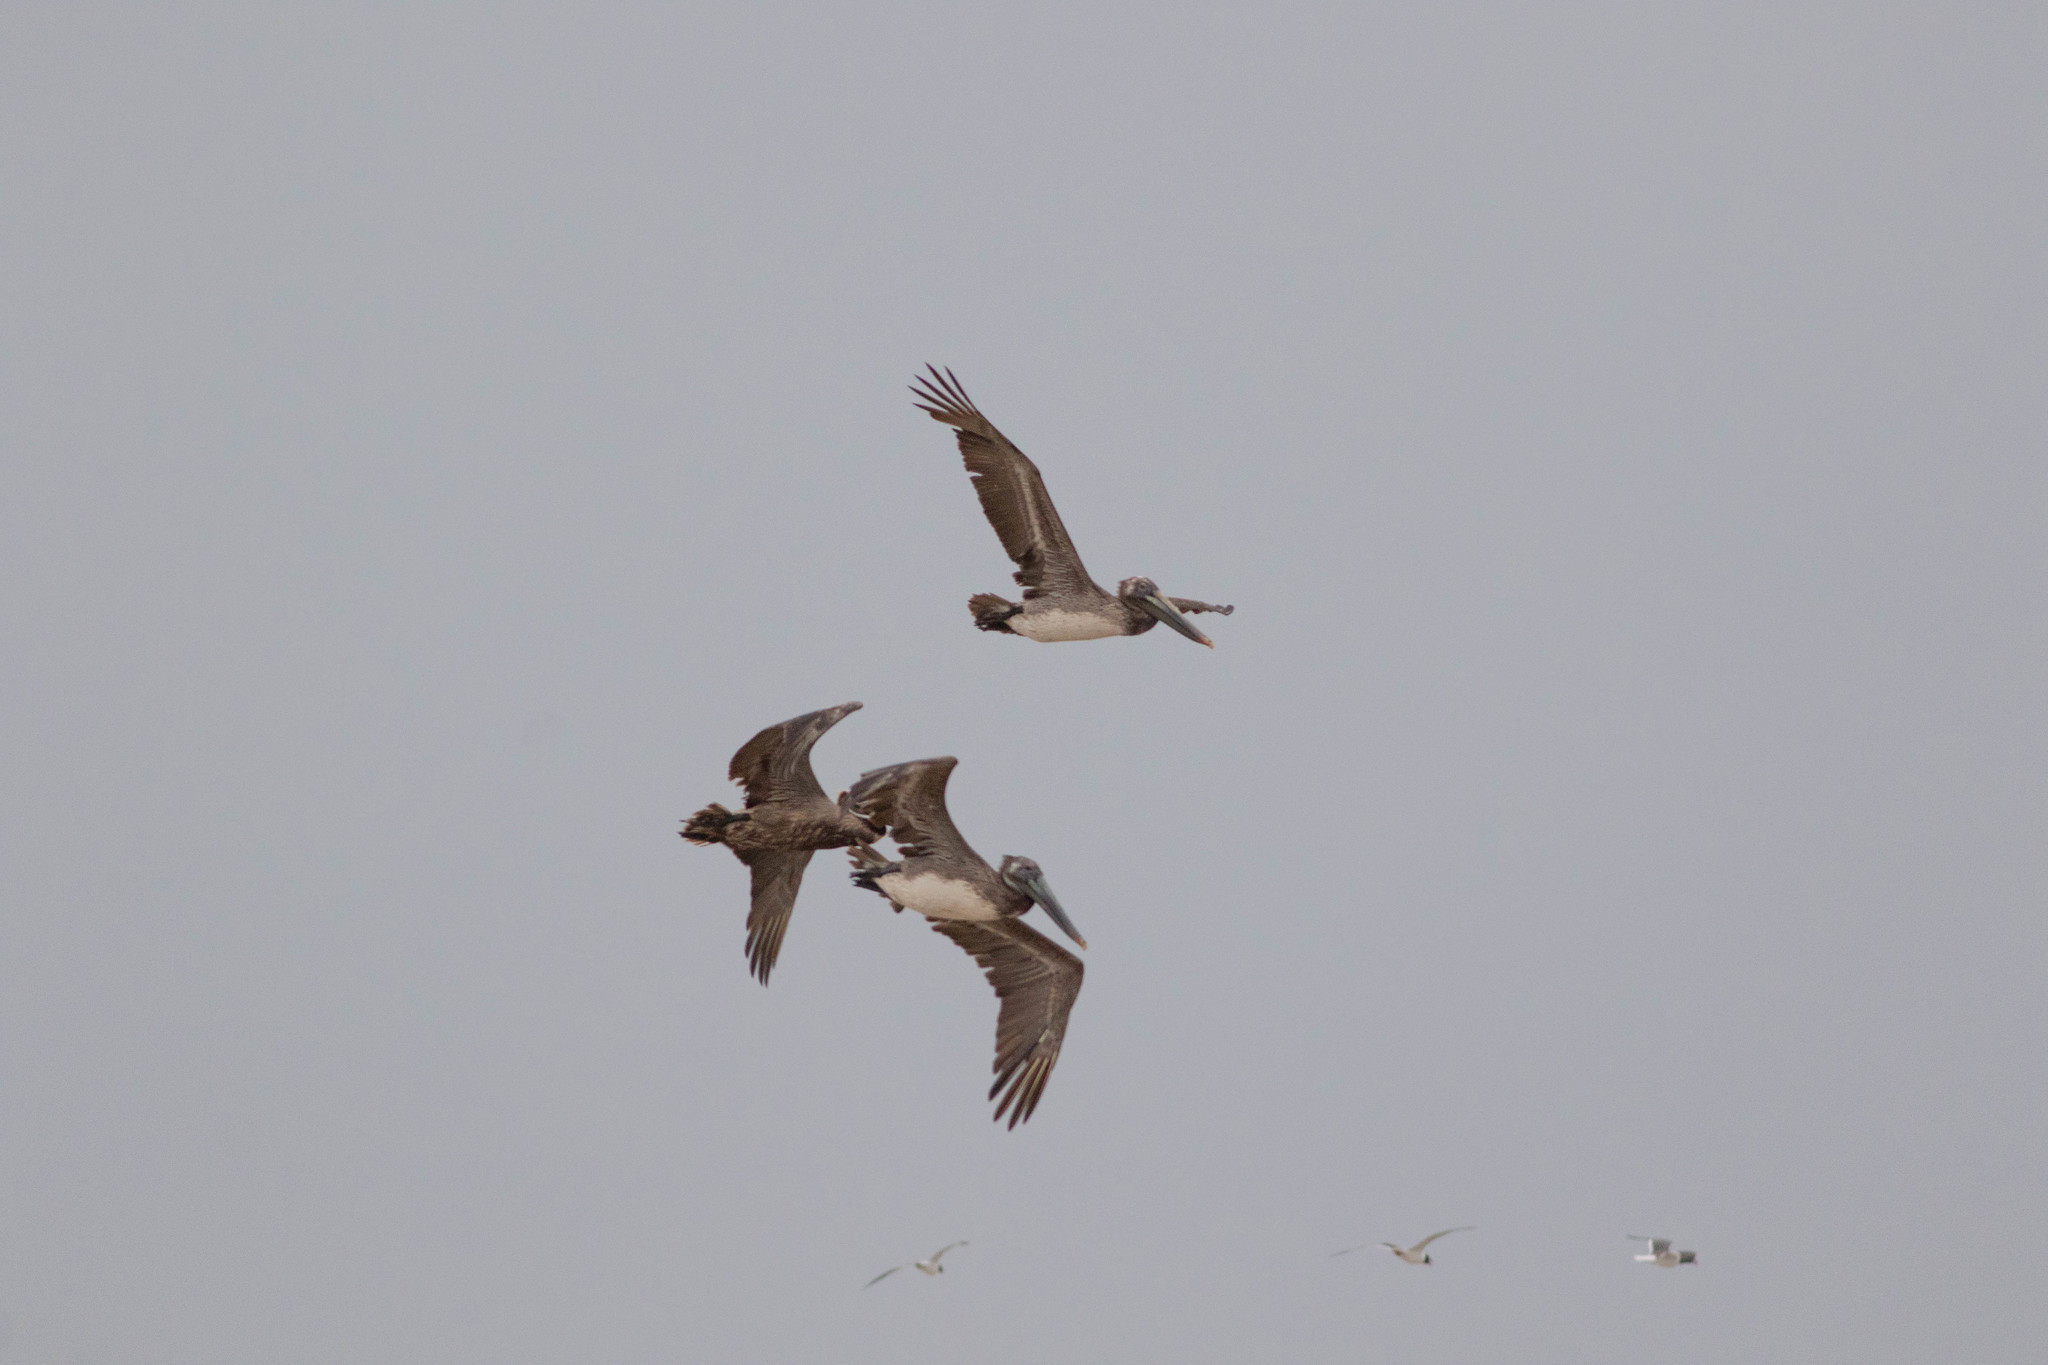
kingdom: Animalia
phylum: Chordata
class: Aves
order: Pelecaniformes
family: Pelecanidae
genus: Pelecanus
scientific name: Pelecanus occidentalis
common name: Brown pelican
